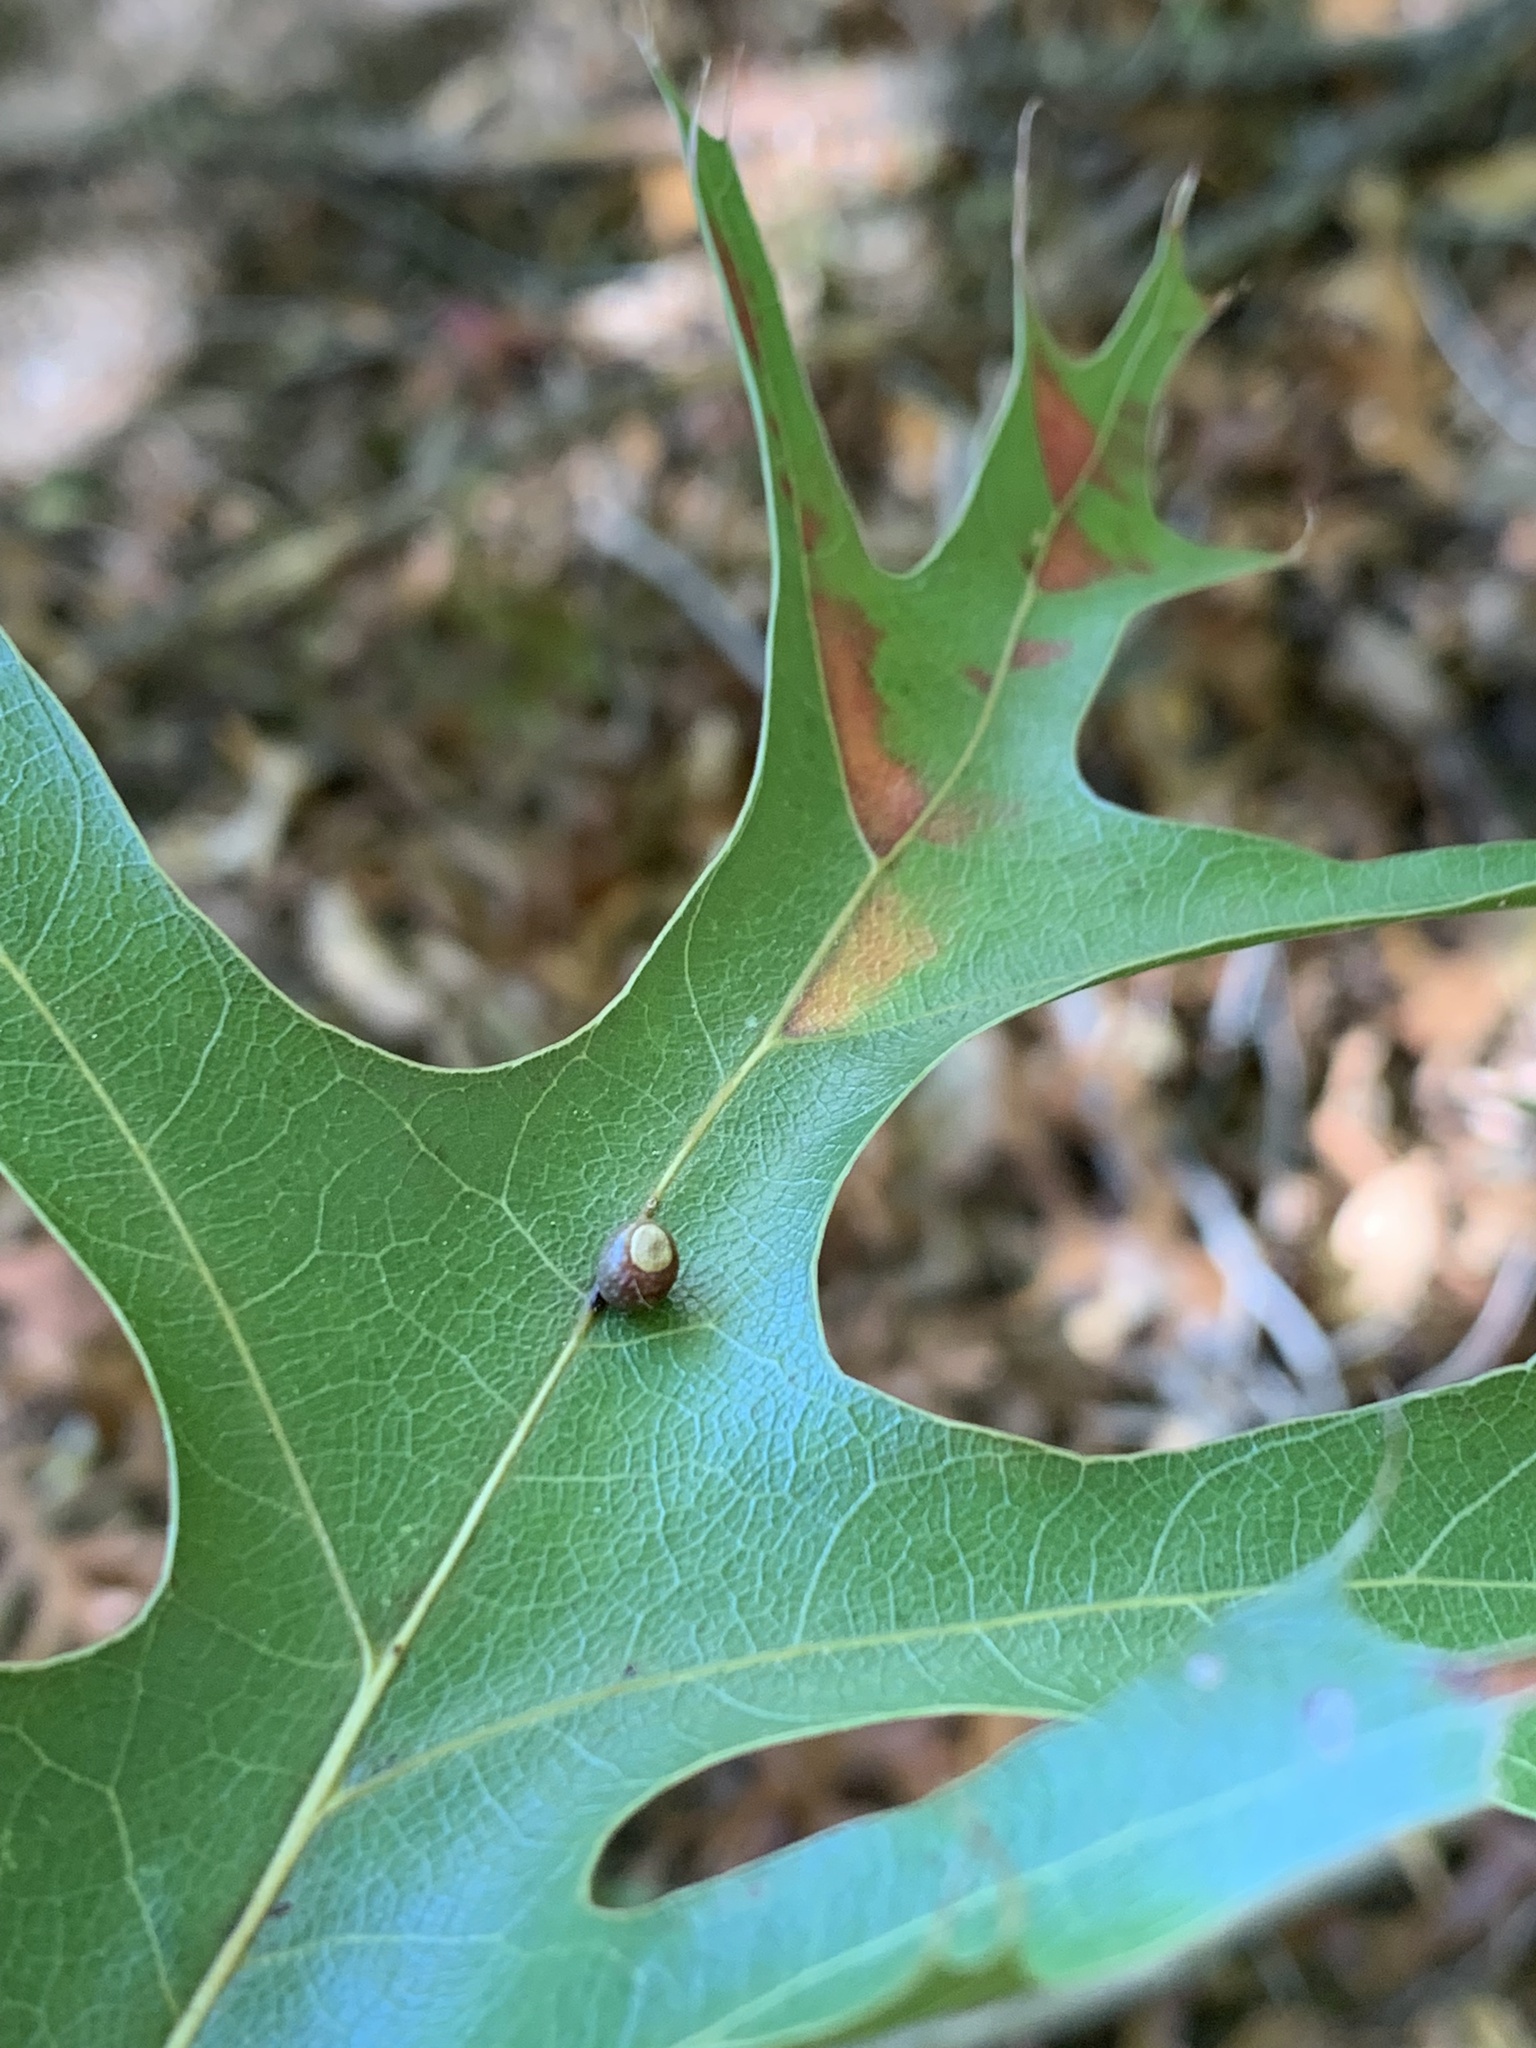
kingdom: Animalia
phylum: Arthropoda
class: Insecta
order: Hymenoptera
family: Cynipidae
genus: Kokkocynips
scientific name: Kokkocynips rileyi
